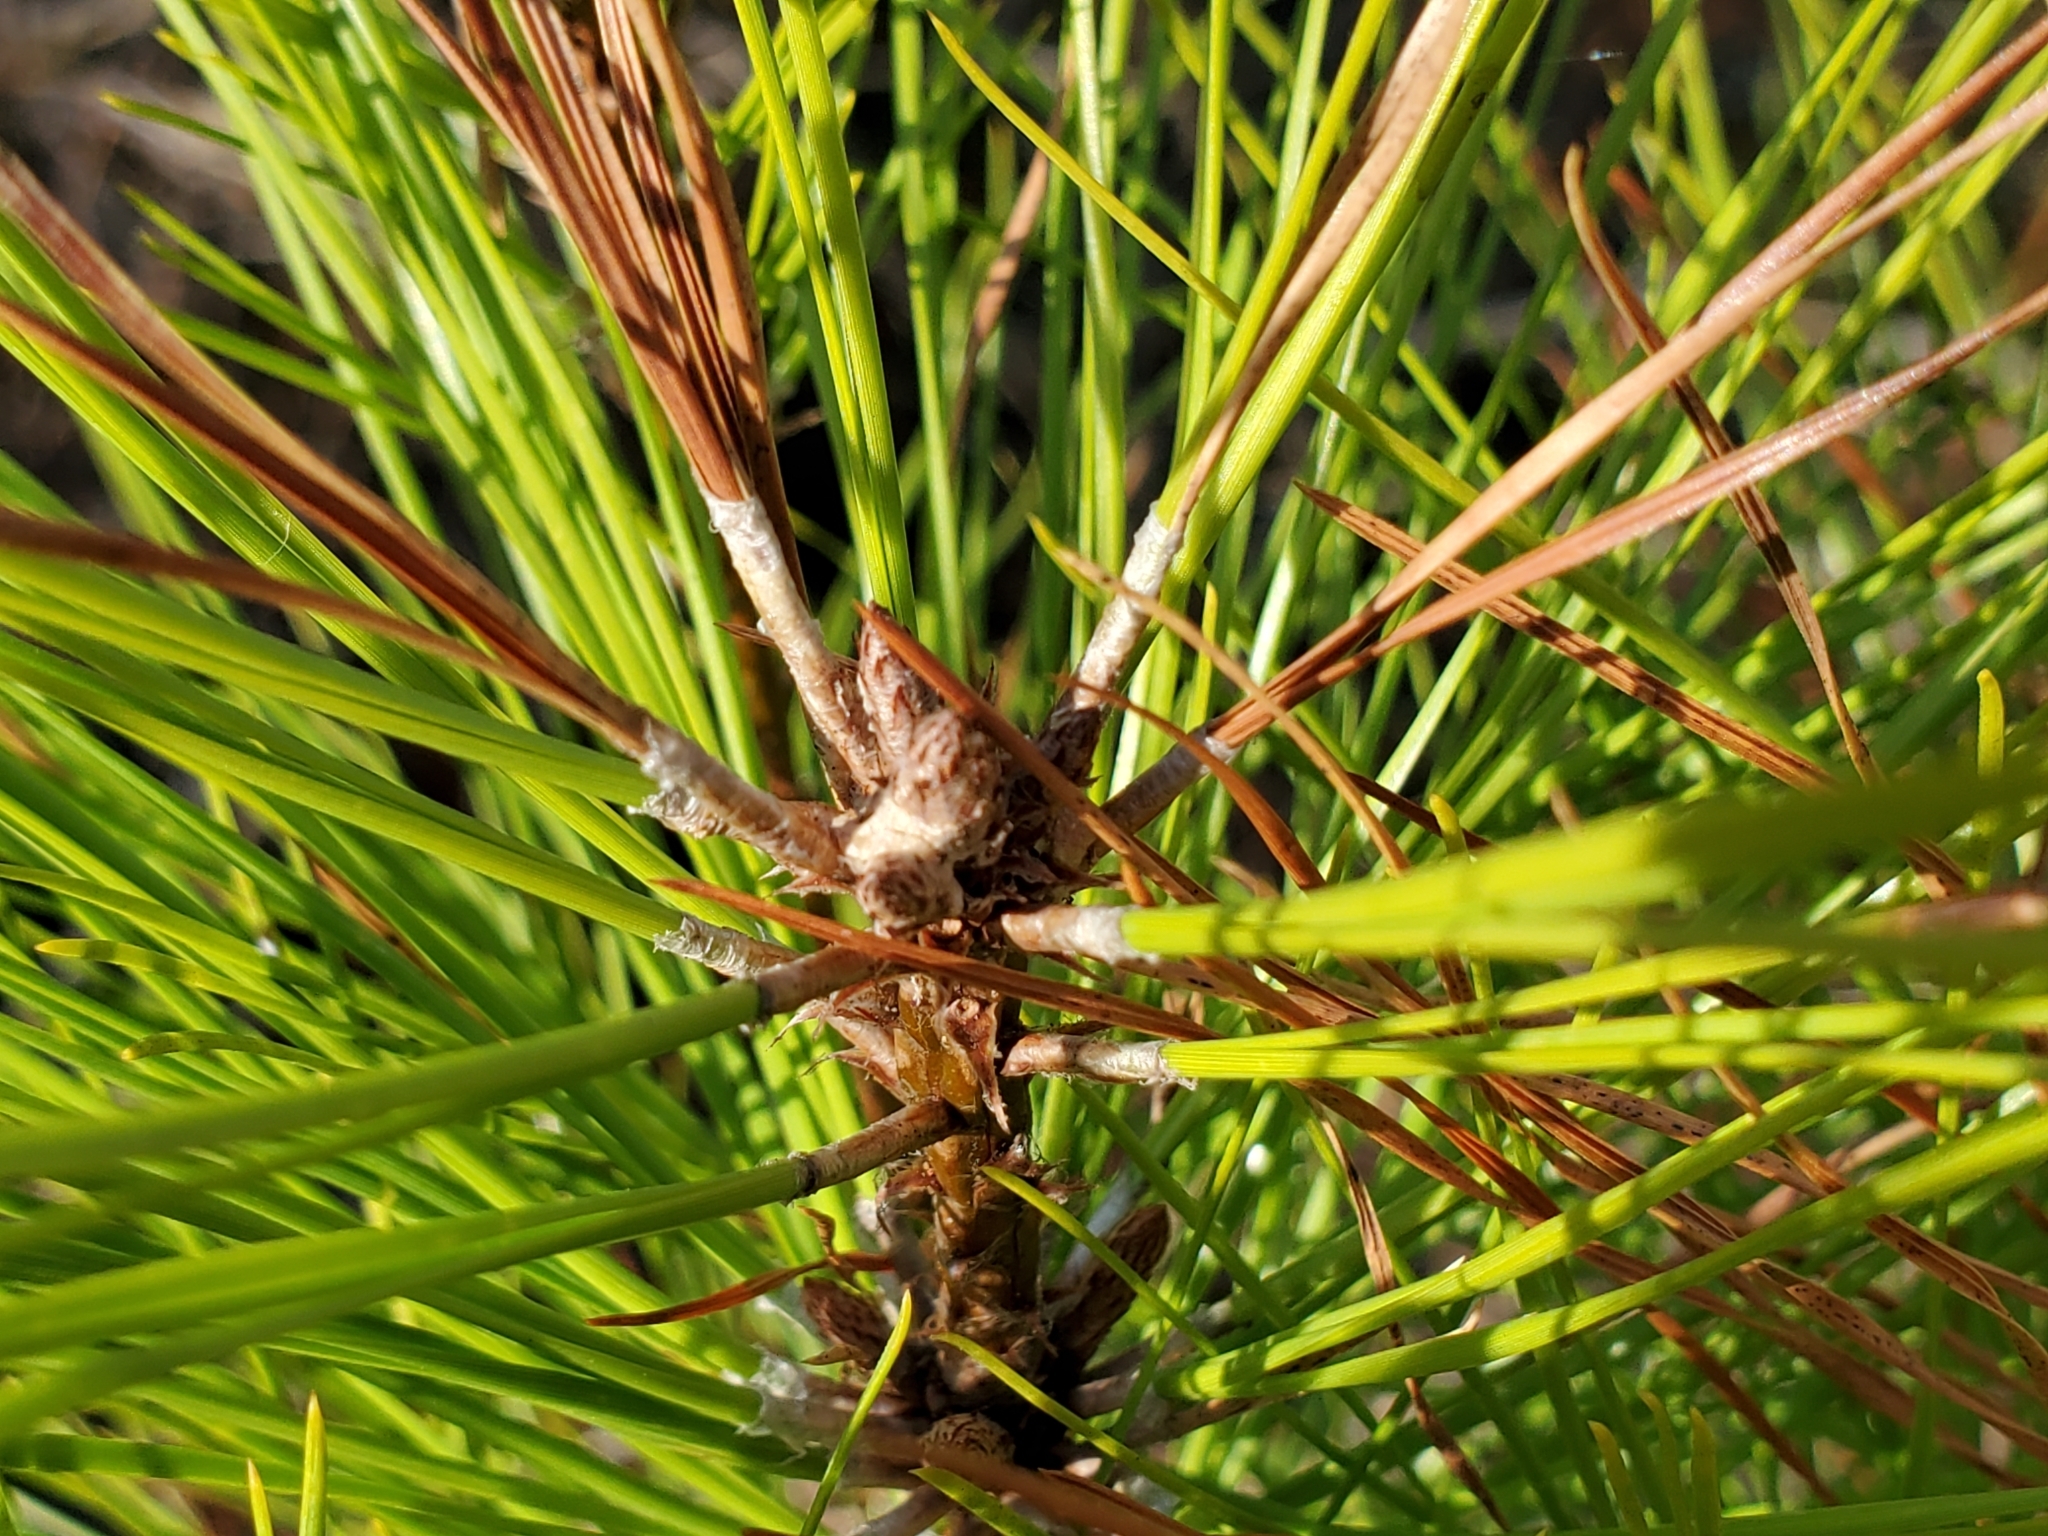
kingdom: Plantae
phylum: Tracheophyta
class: Pinopsida
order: Pinales
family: Pinaceae
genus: Pinus
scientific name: Pinus taeda
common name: Loblolly pine
